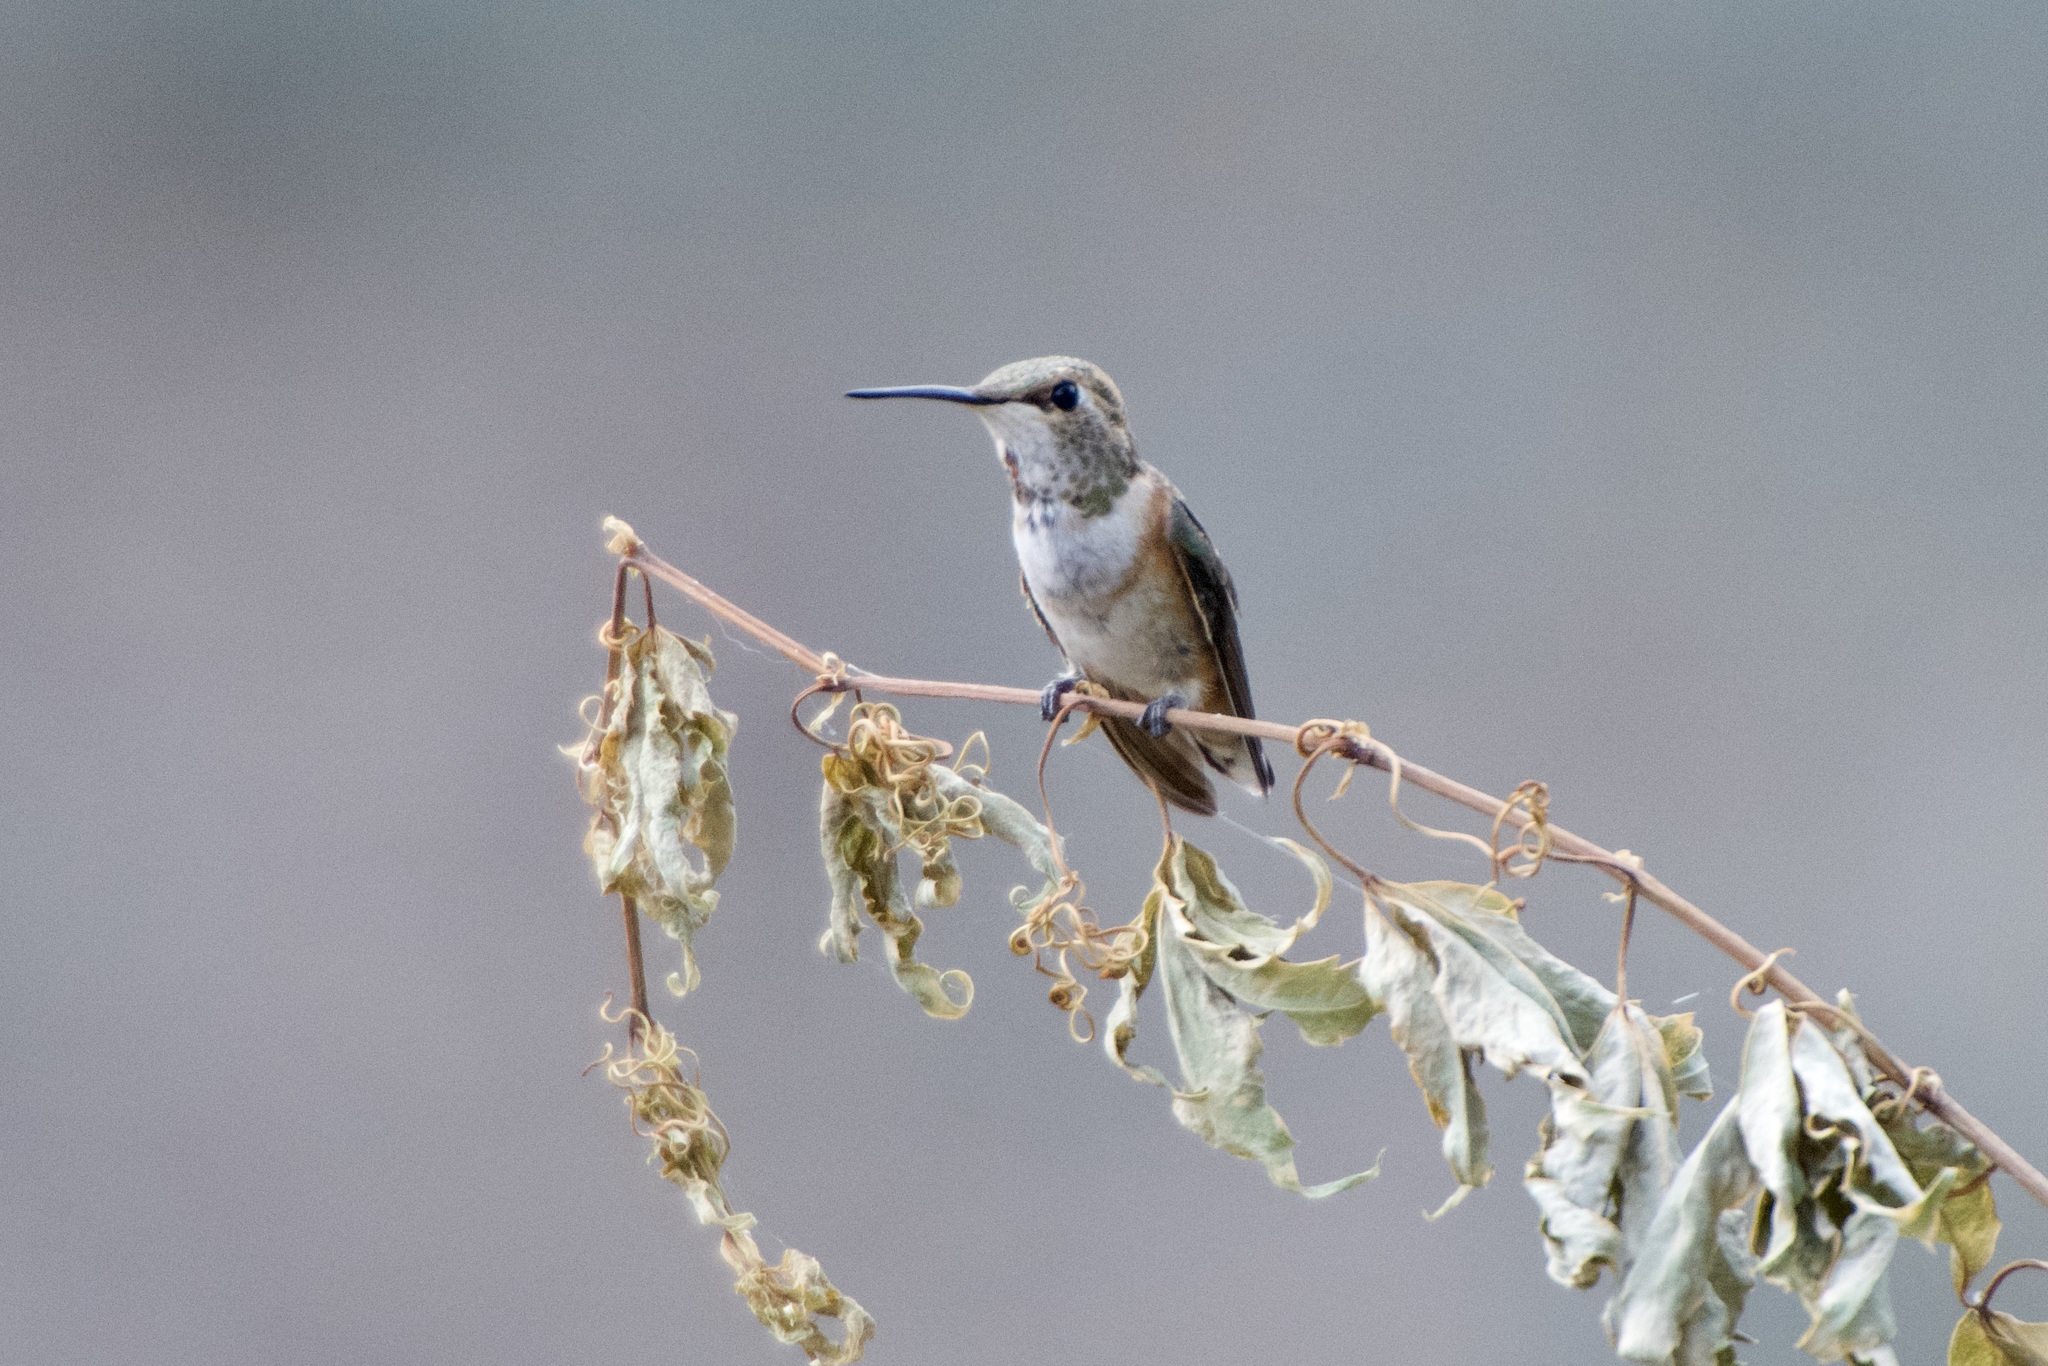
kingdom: Animalia
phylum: Chordata
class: Aves
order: Apodiformes
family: Trochilidae
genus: Selasphorus
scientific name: Selasphorus rufus
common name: Rufous hummingbird
